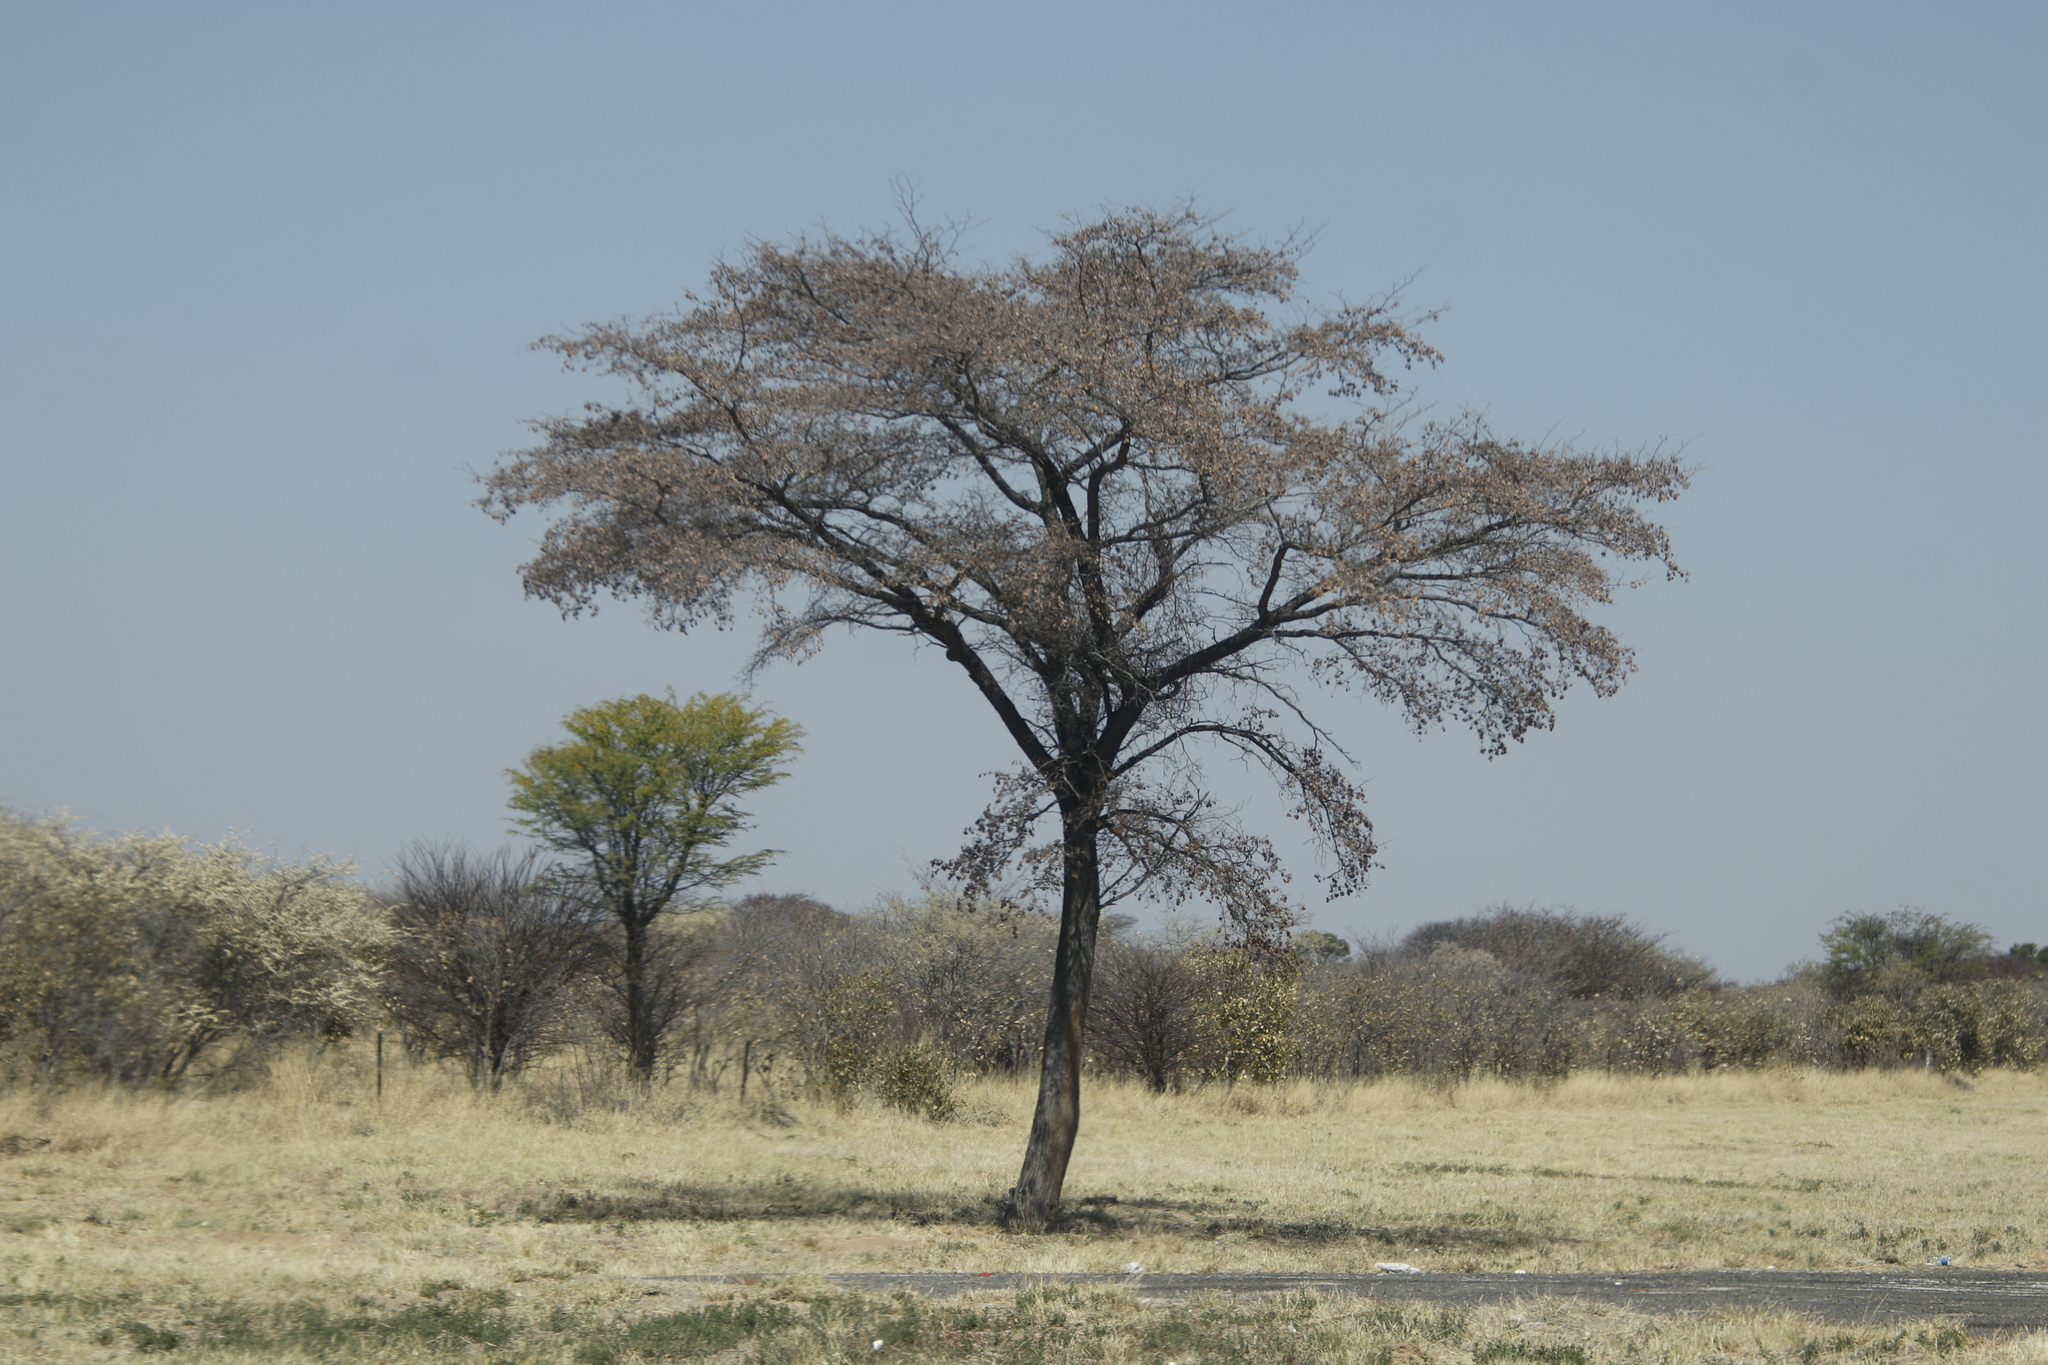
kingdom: Plantae
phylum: Tracheophyta
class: Magnoliopsida
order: Myrtales
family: Combretaceae
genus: Terminalia
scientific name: Terminalia sericea
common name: Clusterleaf
